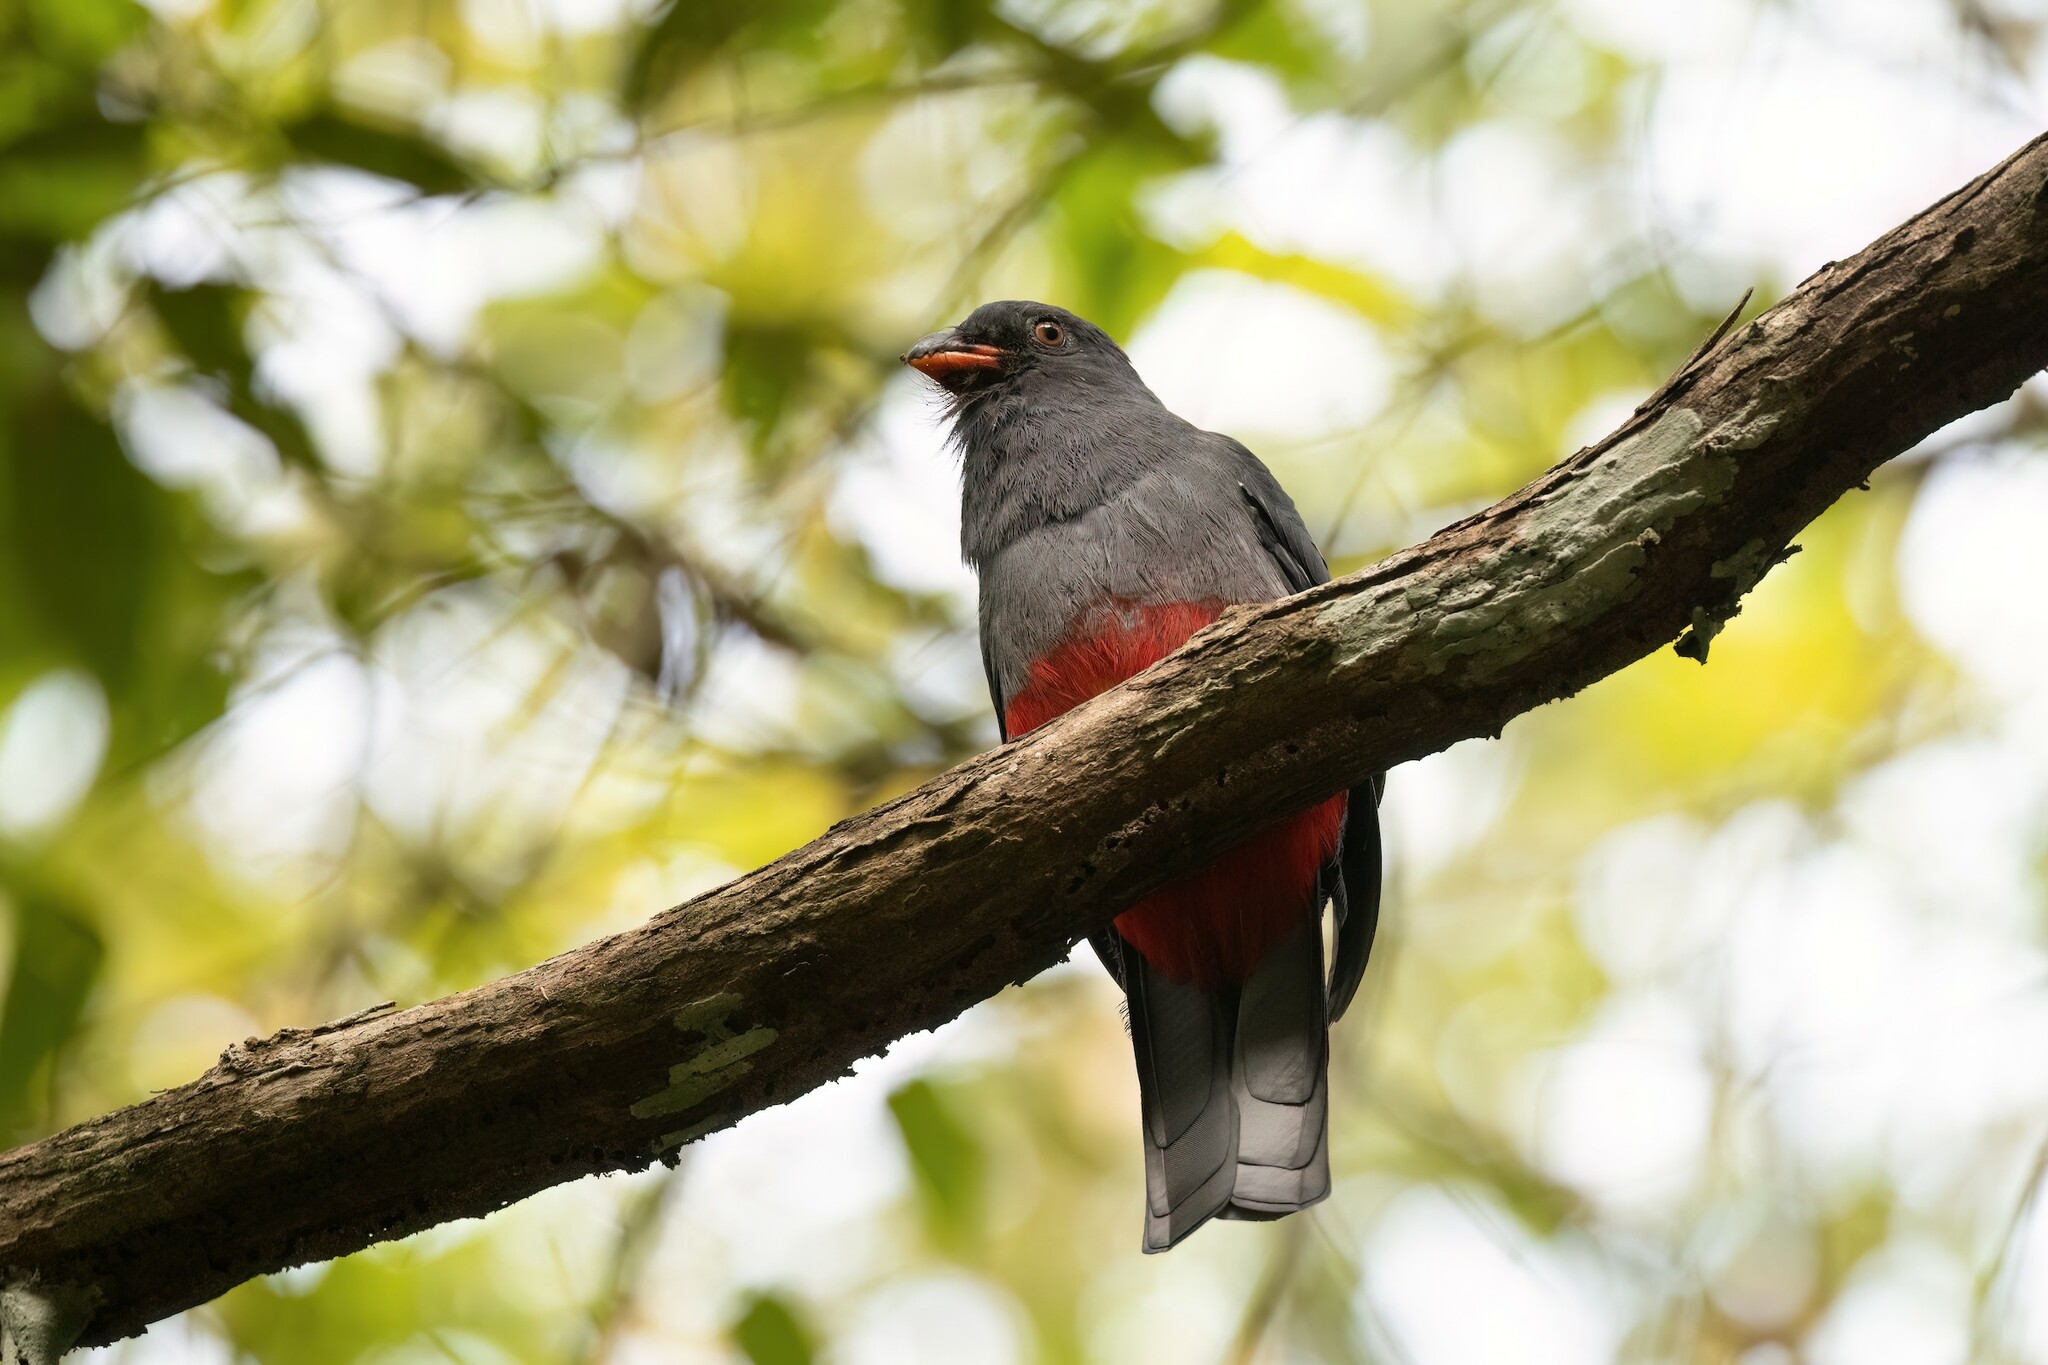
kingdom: Animalia
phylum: Chordata
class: Aves
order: Trogoniformes
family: Trogonidae
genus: Trogon
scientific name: Trogon massena
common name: Slaty-tailed trogon
